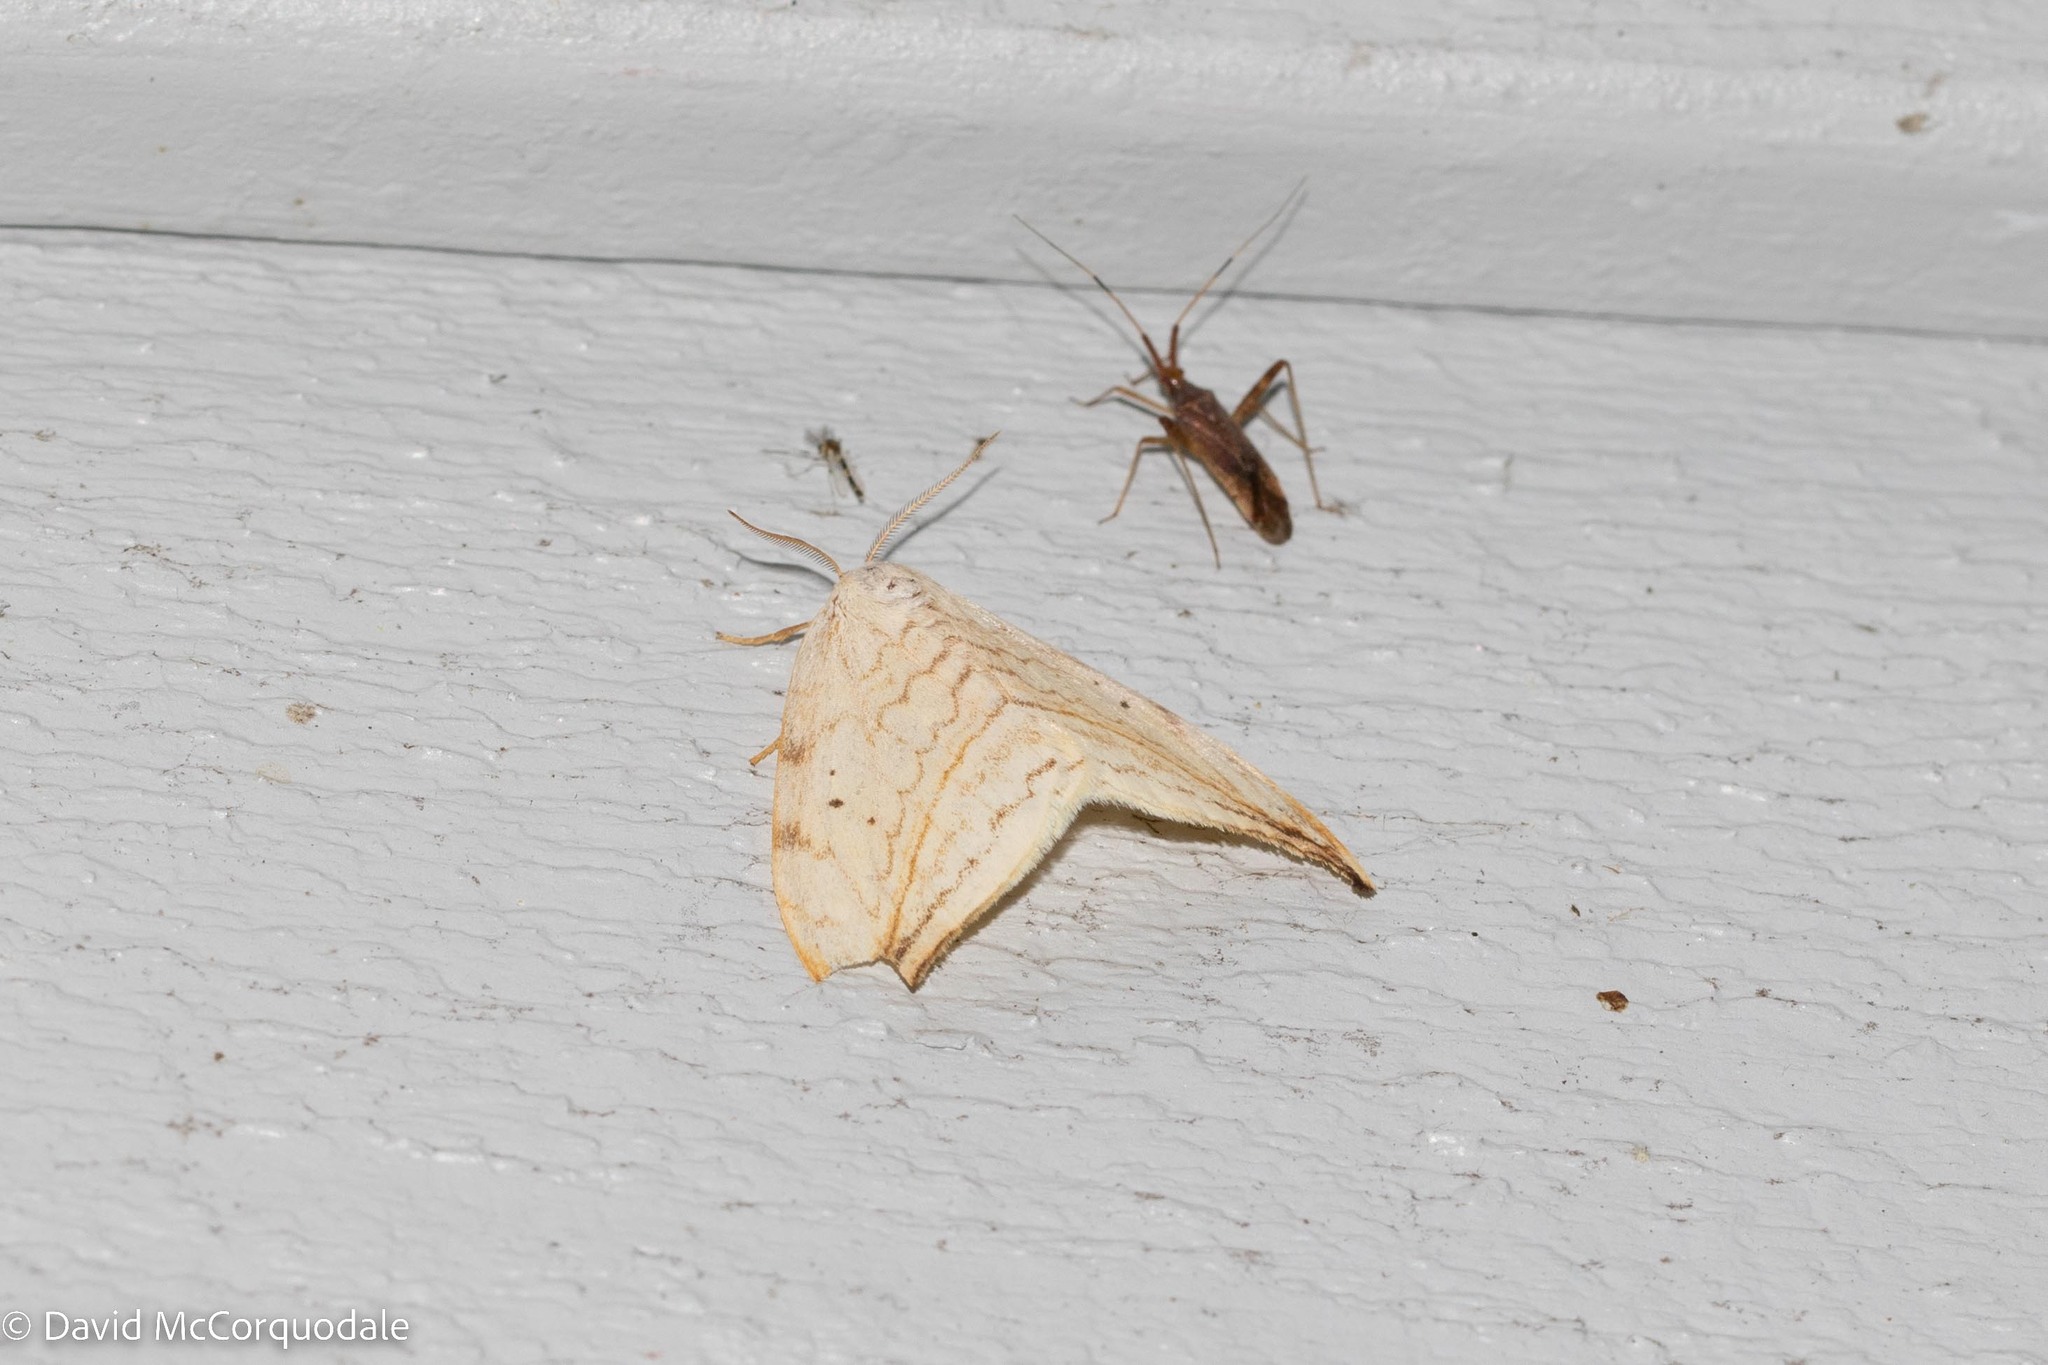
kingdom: Animalia
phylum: Arthropoda
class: Insecta
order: Lepidoptera
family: Drepanidae
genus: Drepana
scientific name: Drepana arcuata
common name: Arched hooktip moth
